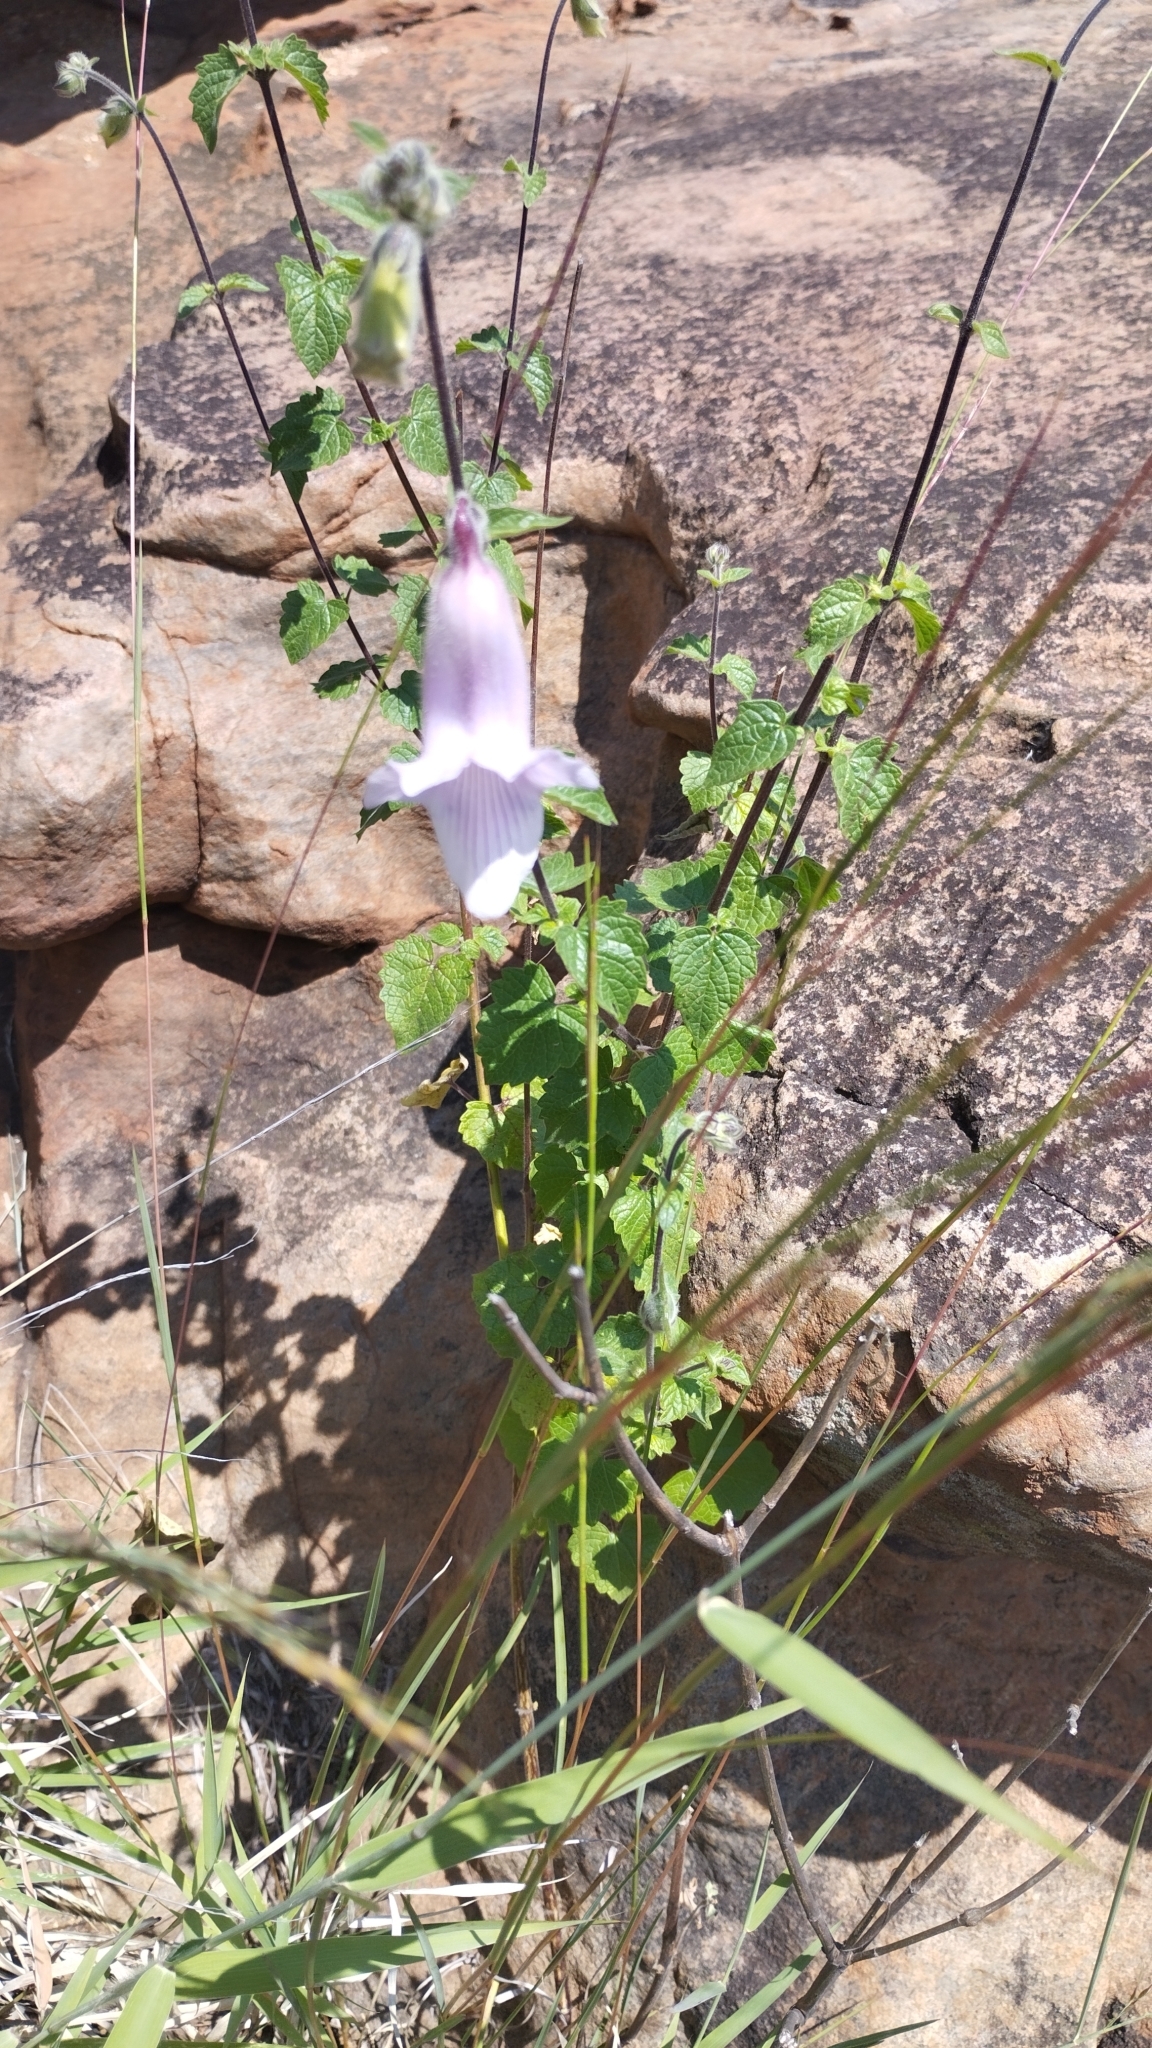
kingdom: Plantae
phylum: Tracheophyta
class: Magnoliopsida
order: Lamiales
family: Pedaliaceae
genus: Sesamum
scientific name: Sesamum trilobum
